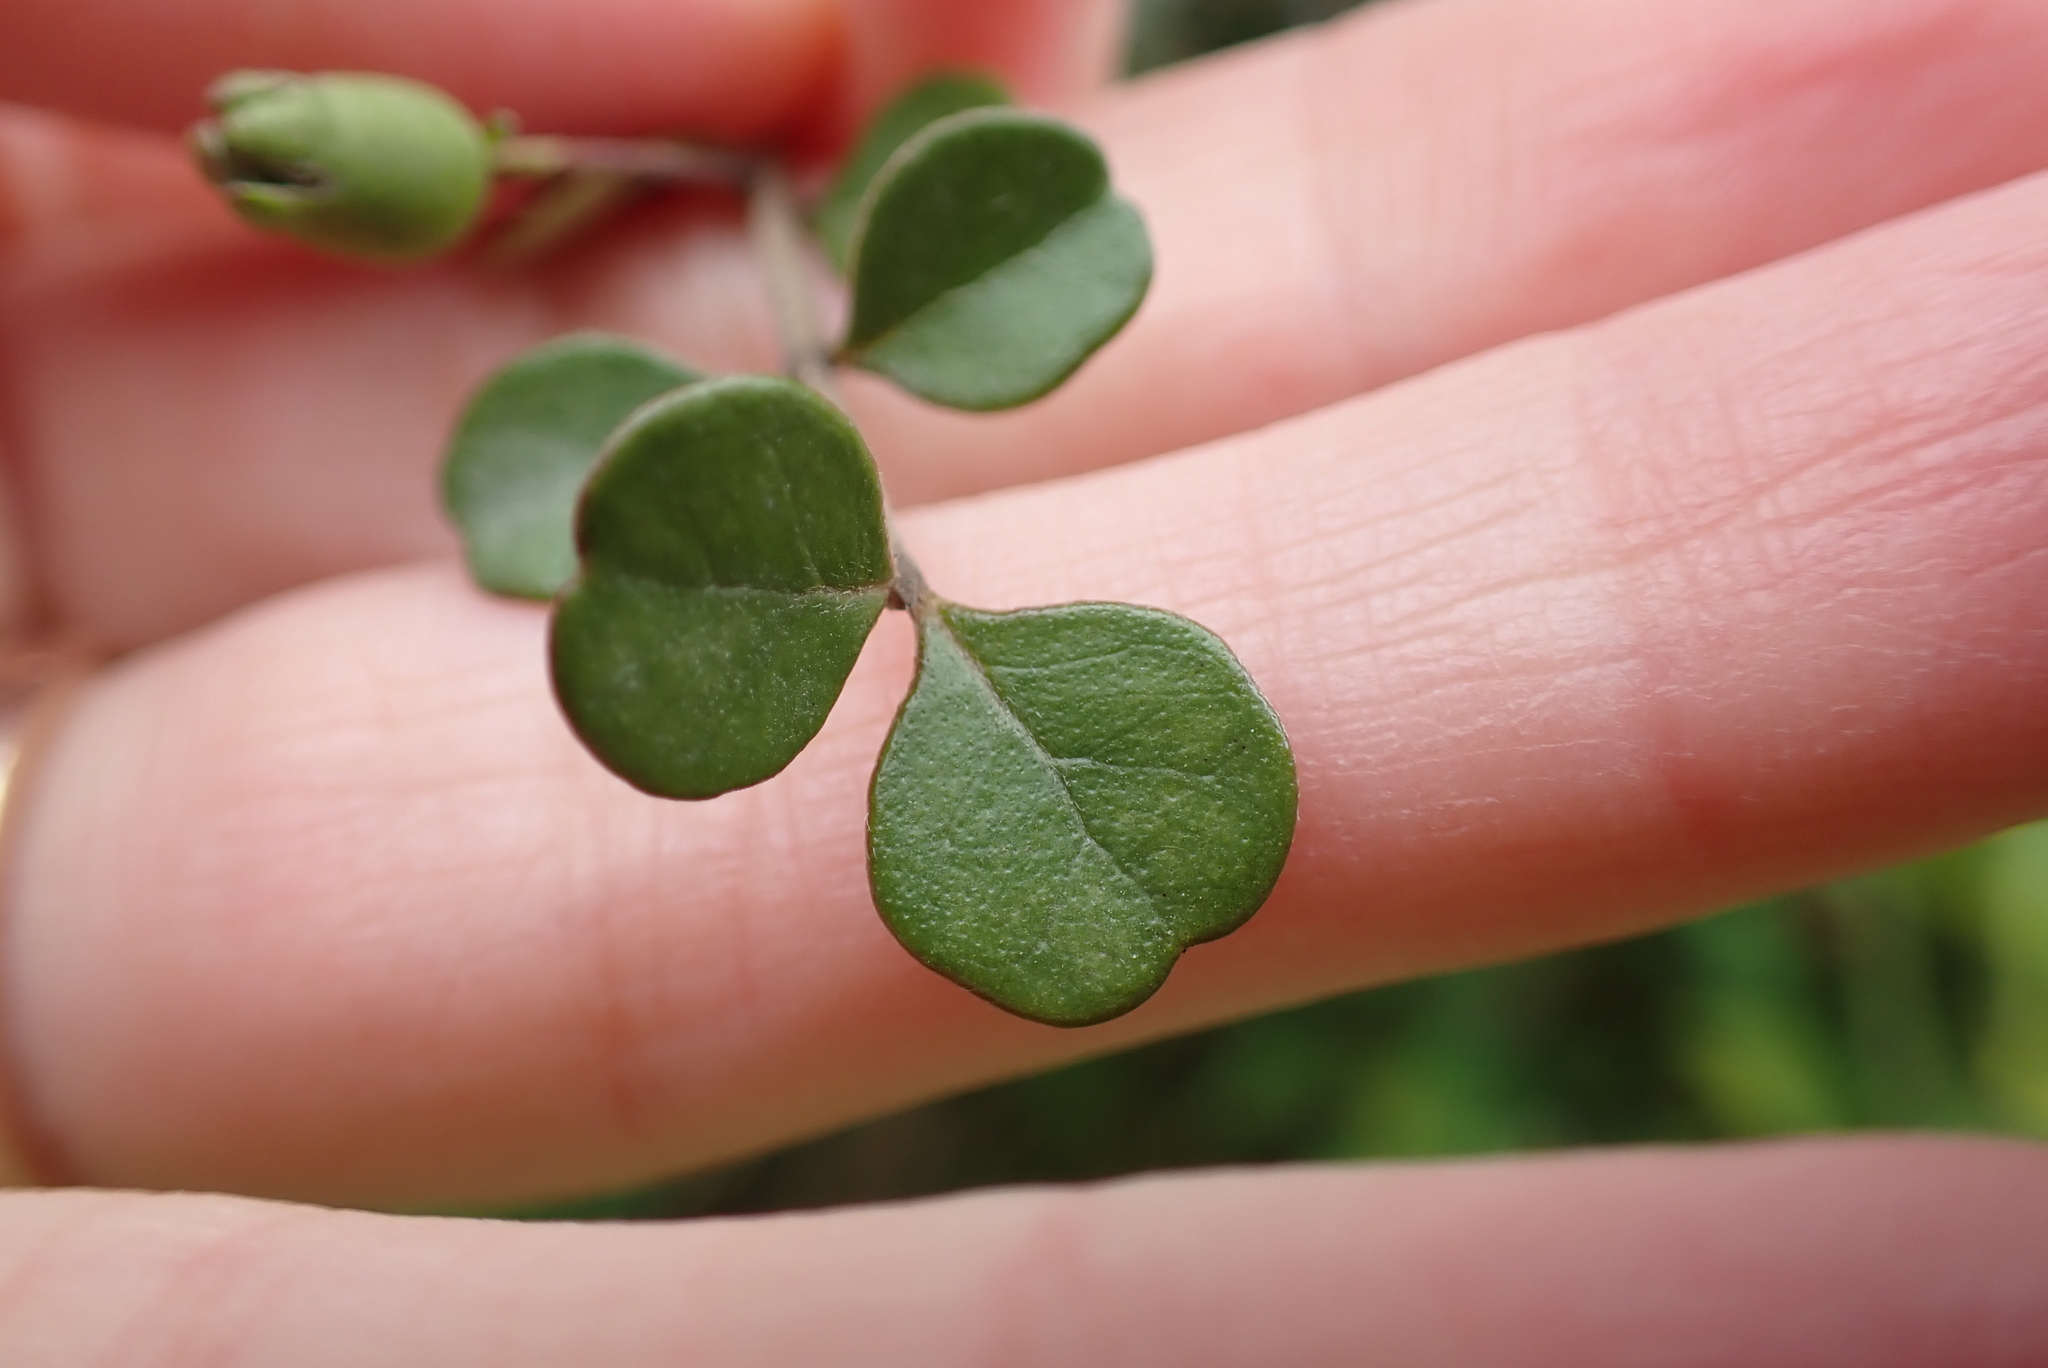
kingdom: Plantae
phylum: Tracheophyta
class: Magnoliopsida
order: Myrtales
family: Myrtaceae
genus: Lophomyrtus
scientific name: Lophomyrtus obcordata
